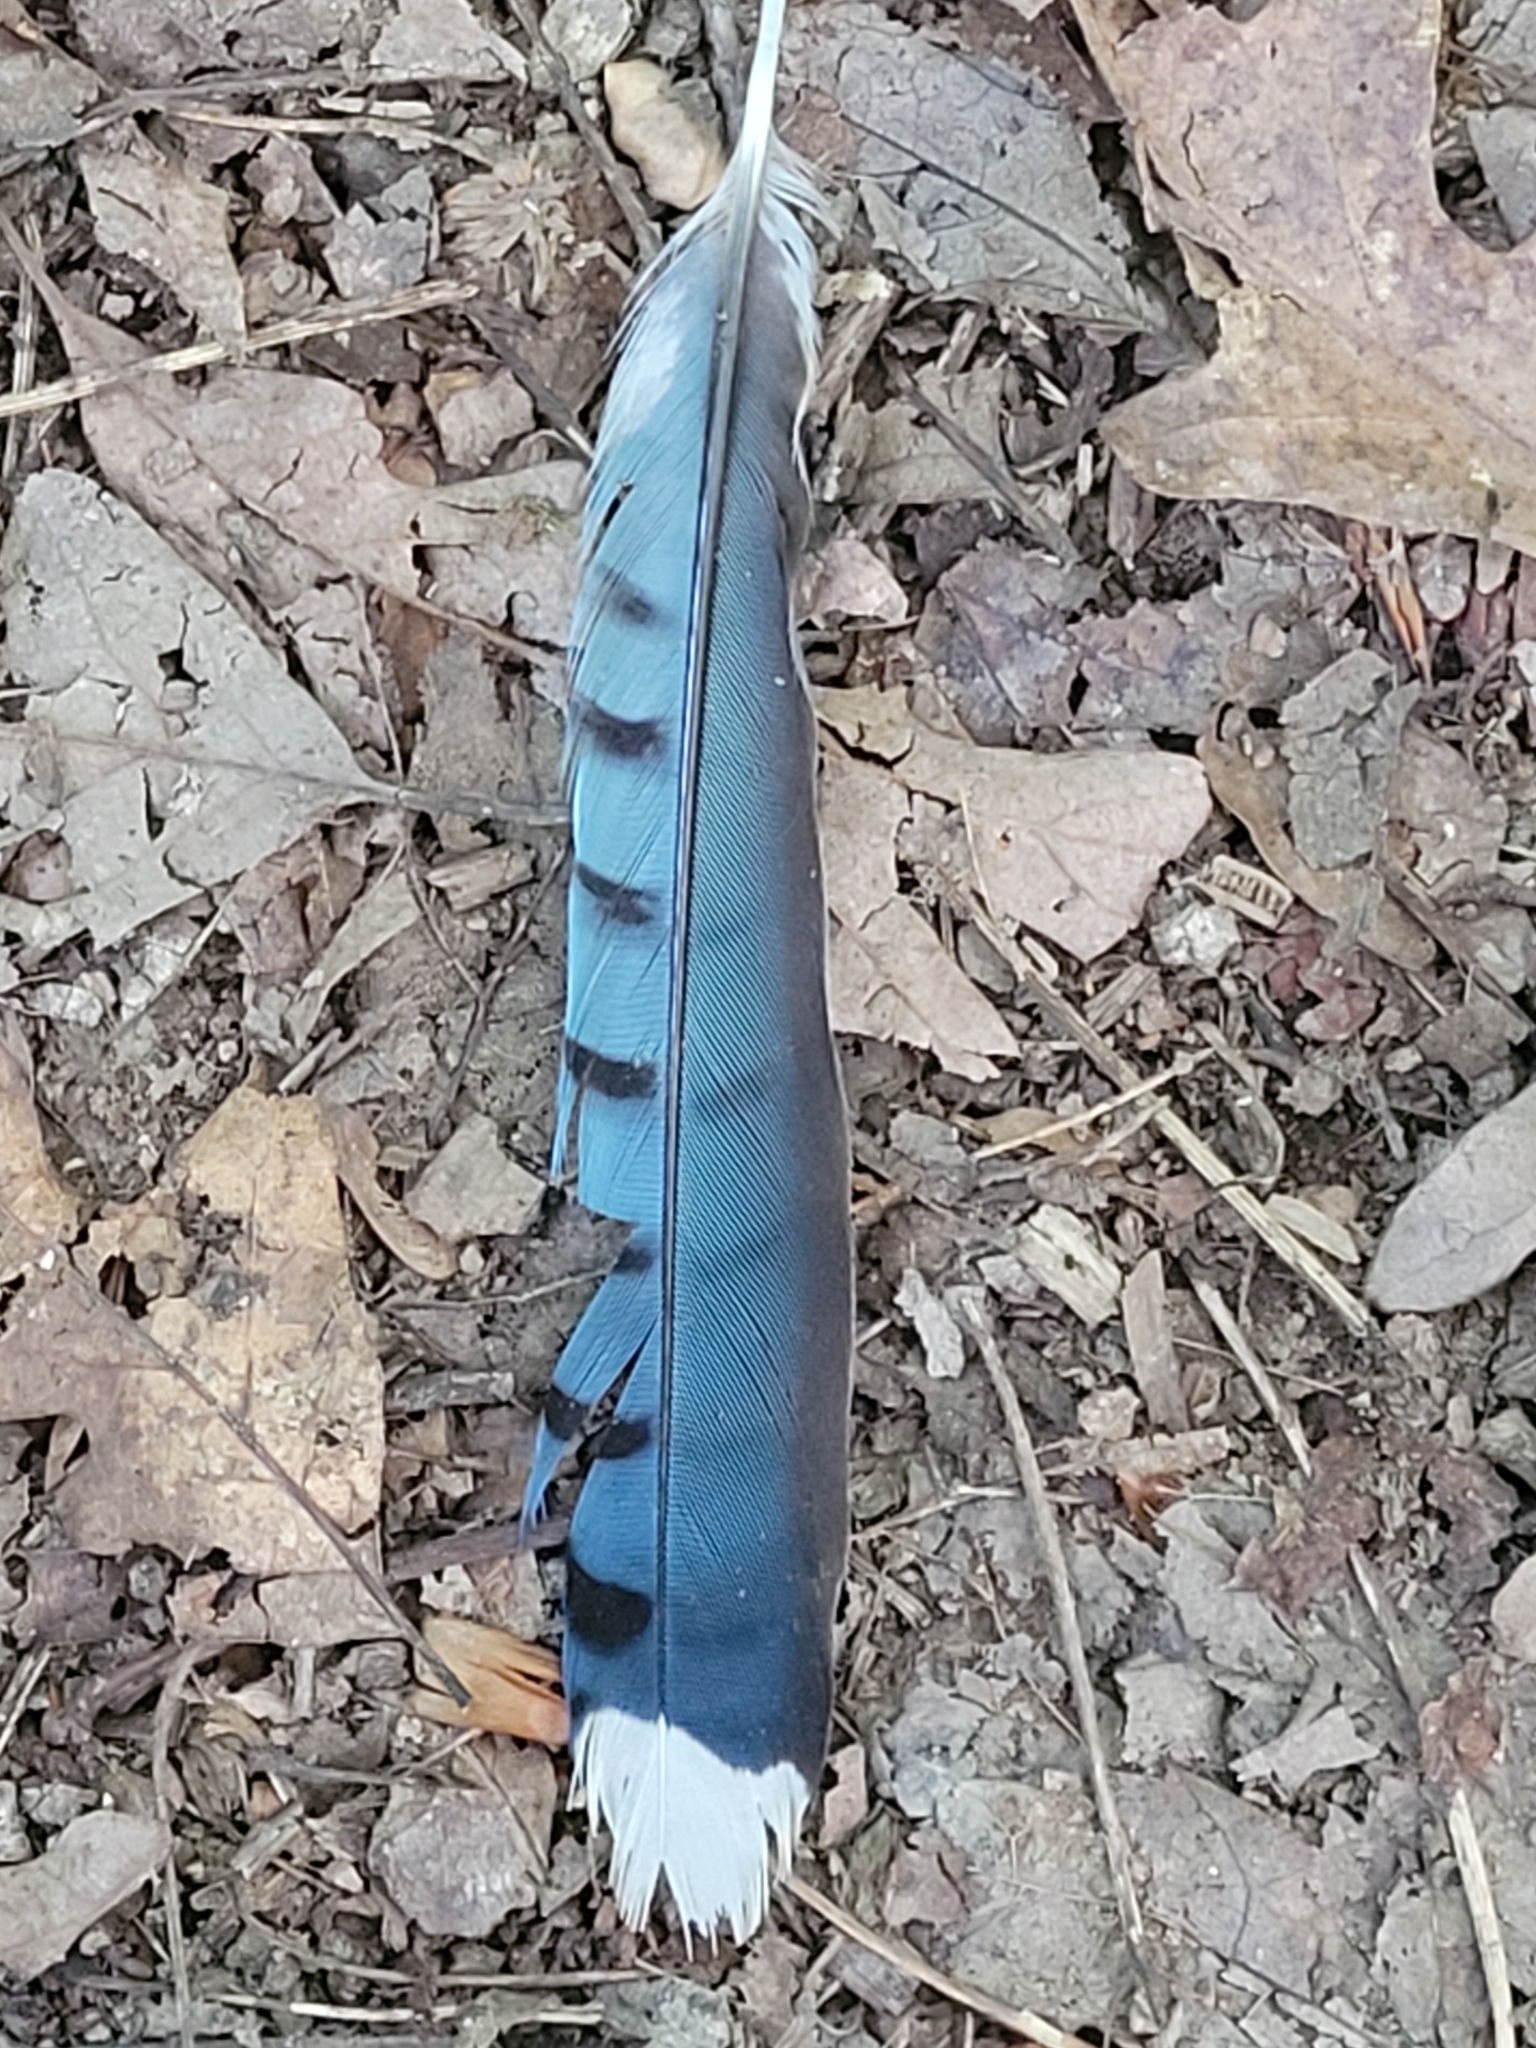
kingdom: Animalia
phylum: Chordata
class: Aves
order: Passeriformes
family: Corvidae
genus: Cyanocitta
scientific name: Cyanocitta cristata
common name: Blue jay
